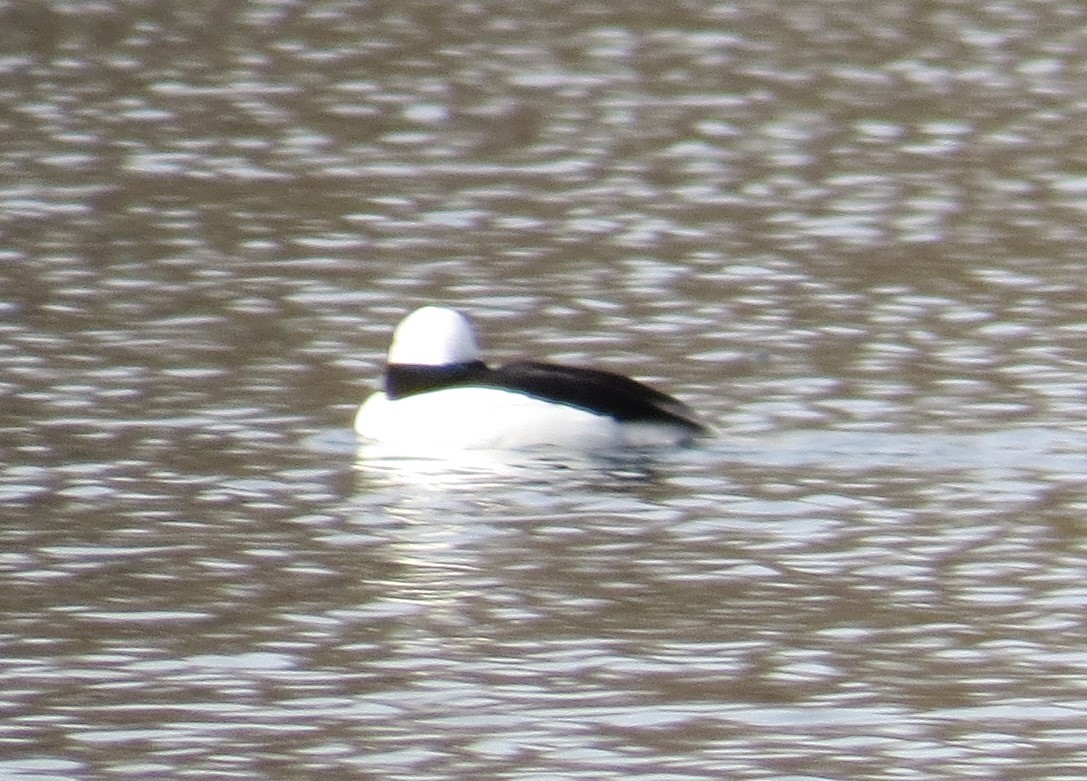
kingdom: Animalia
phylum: Chordata
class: Aves
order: Anseriformes
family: Anatidae
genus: Bucephala
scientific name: Bucephala albeola
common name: Bufflehead
